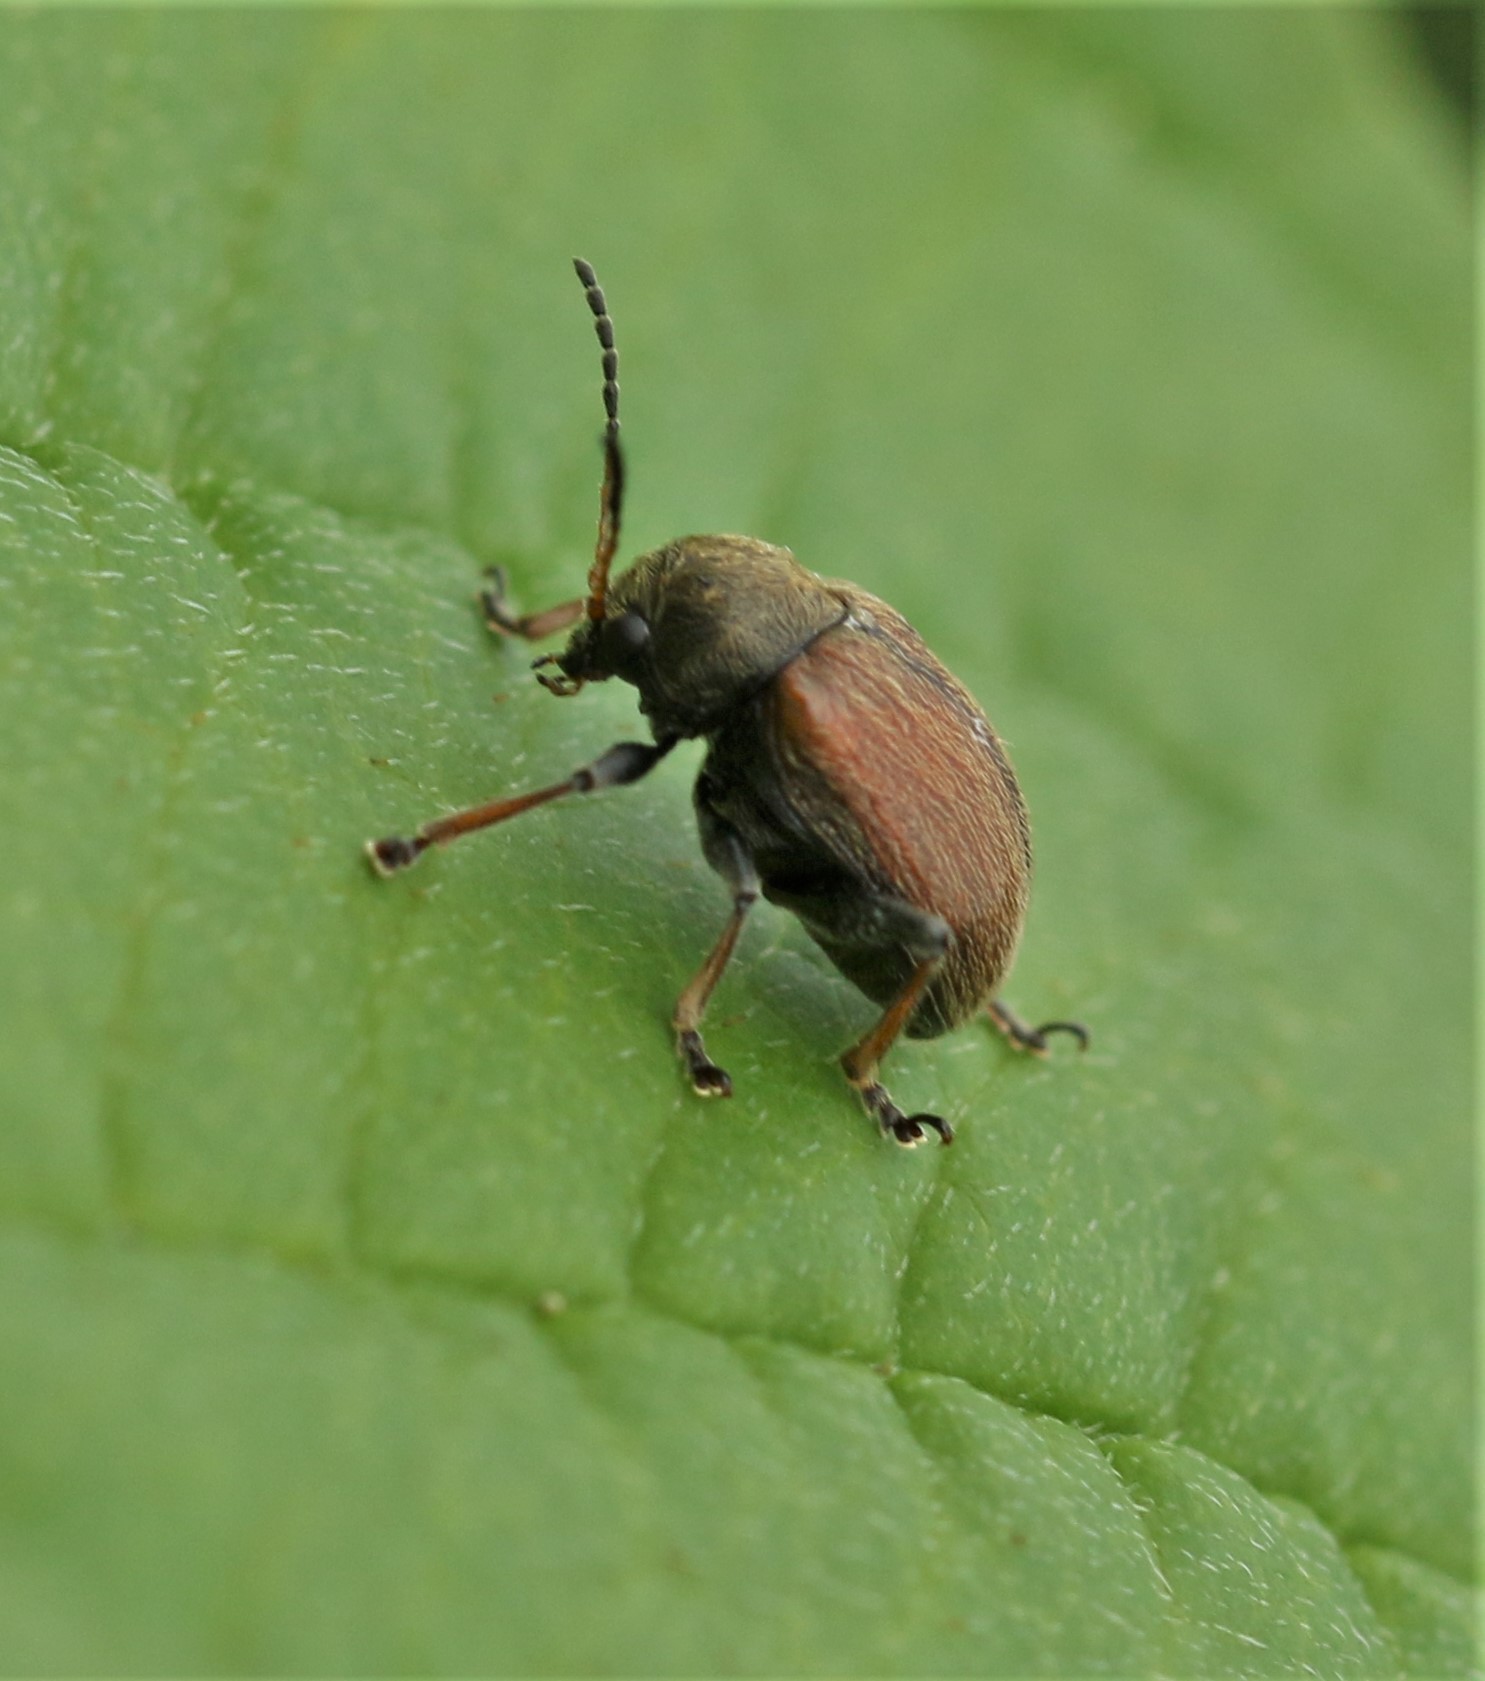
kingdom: Animalia
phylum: Arthropoda
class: Insecta
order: Coleoptera
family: Chrysomelidae
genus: Bromius
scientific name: Bromius obscurus
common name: Western grape rootworm
